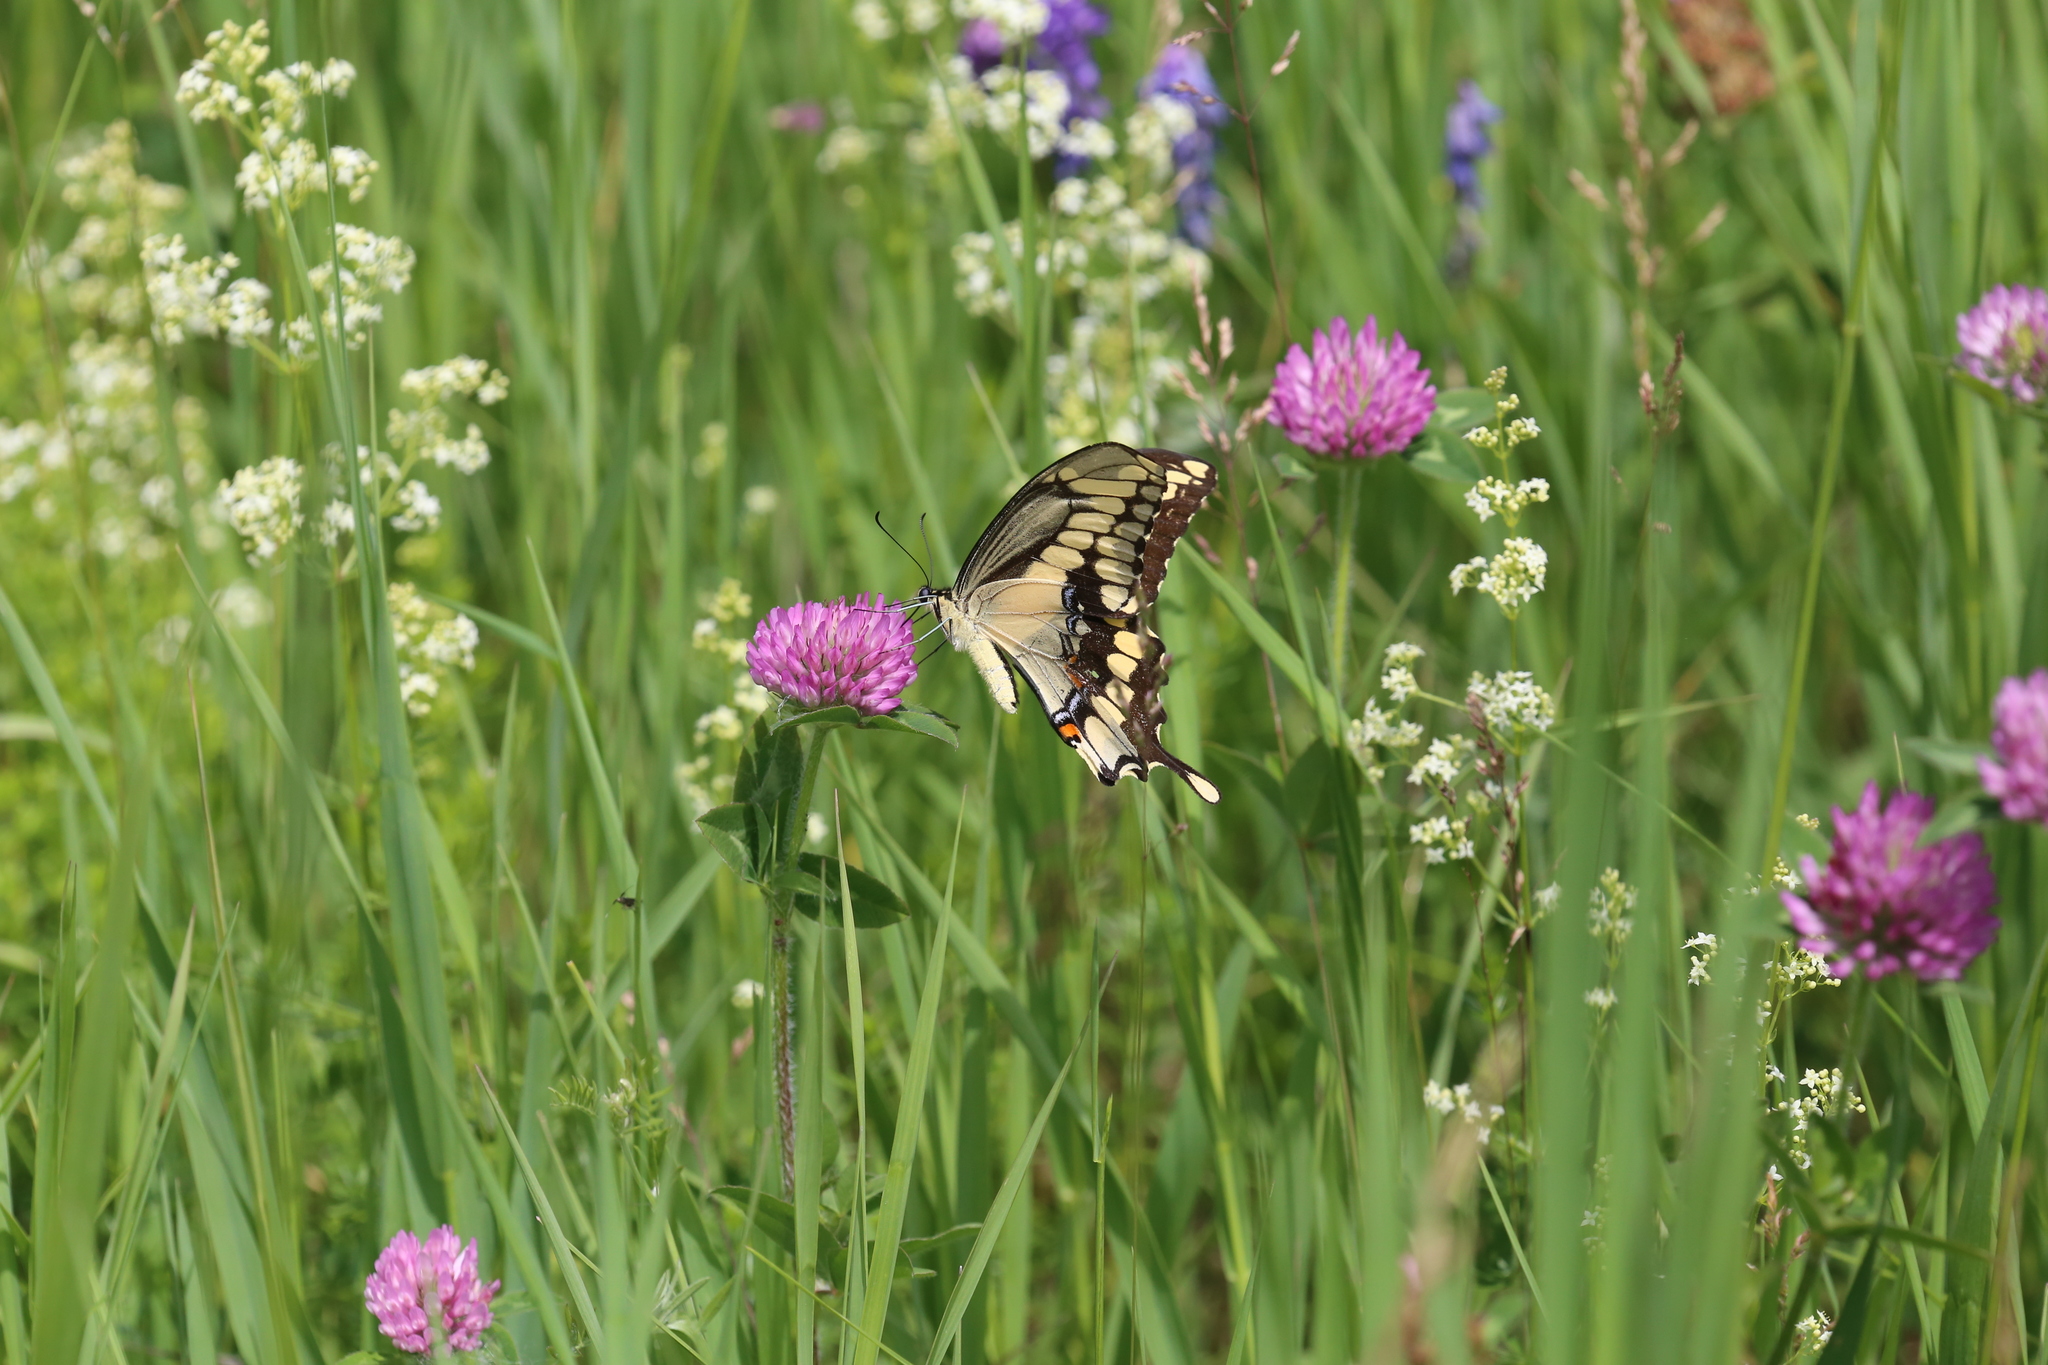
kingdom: Animalia
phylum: Arthropoda
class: Insecta
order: Lepidoptera
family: Papilionidae
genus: Papilio
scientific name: Papilio cresphontes
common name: Giant swallowtail
